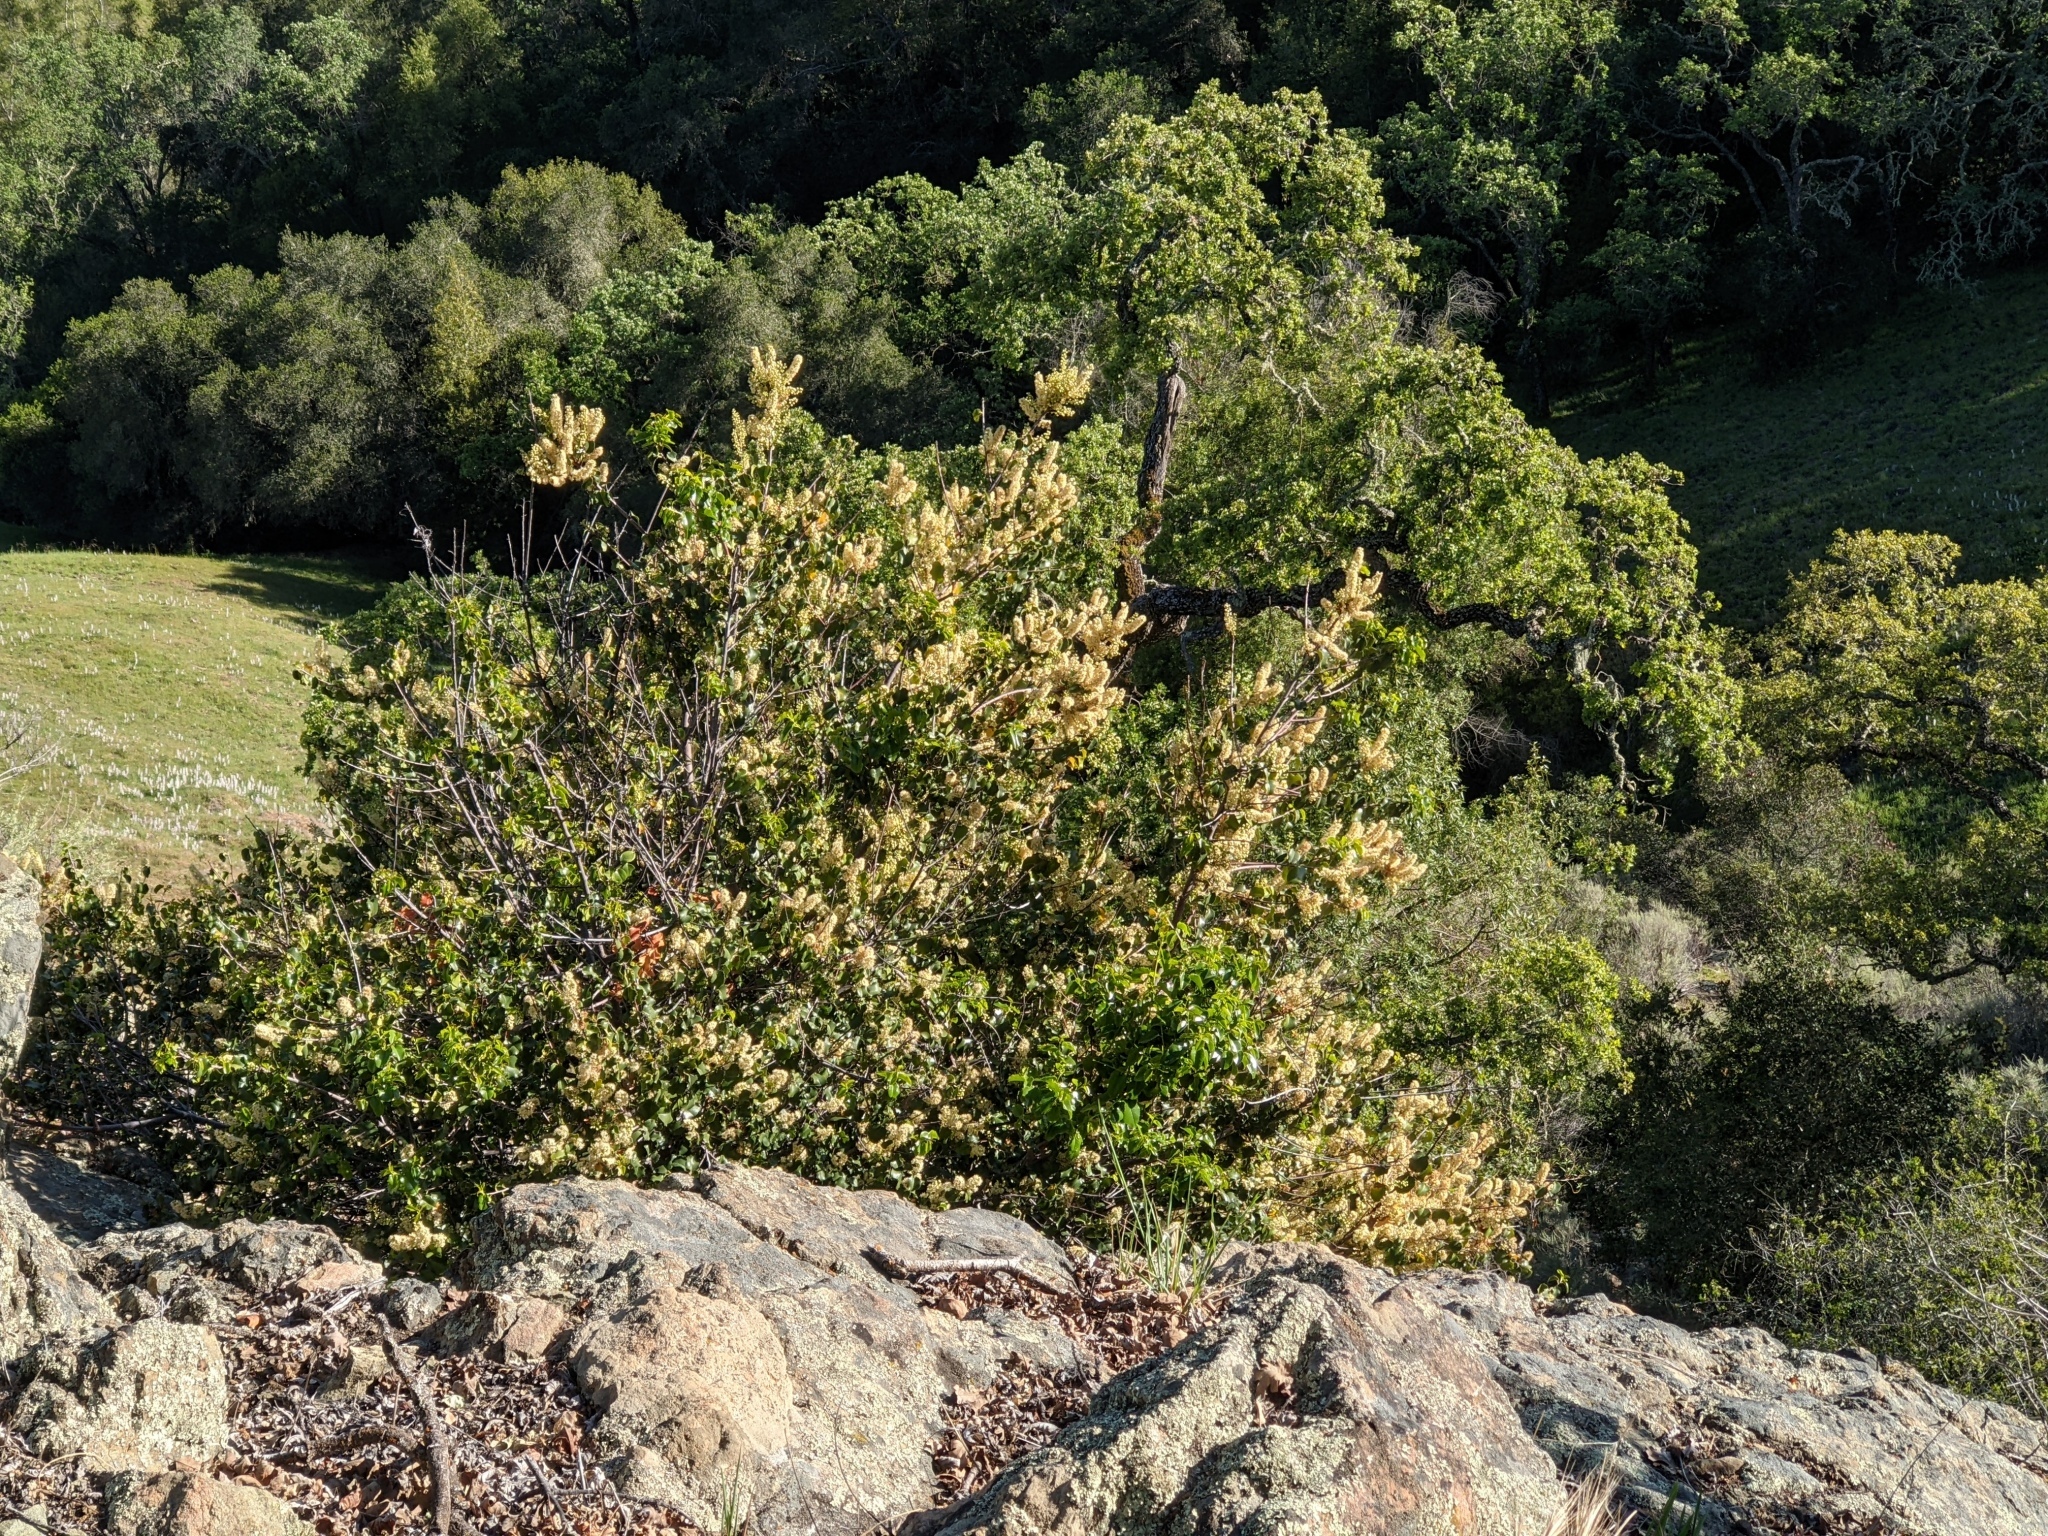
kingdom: Plantae
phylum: Tracheophyta
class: Magnoliopsida
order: Rosales
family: Rosaceae
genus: Prunus
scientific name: Prunus ilicifolia
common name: Hollyleaf cherry
